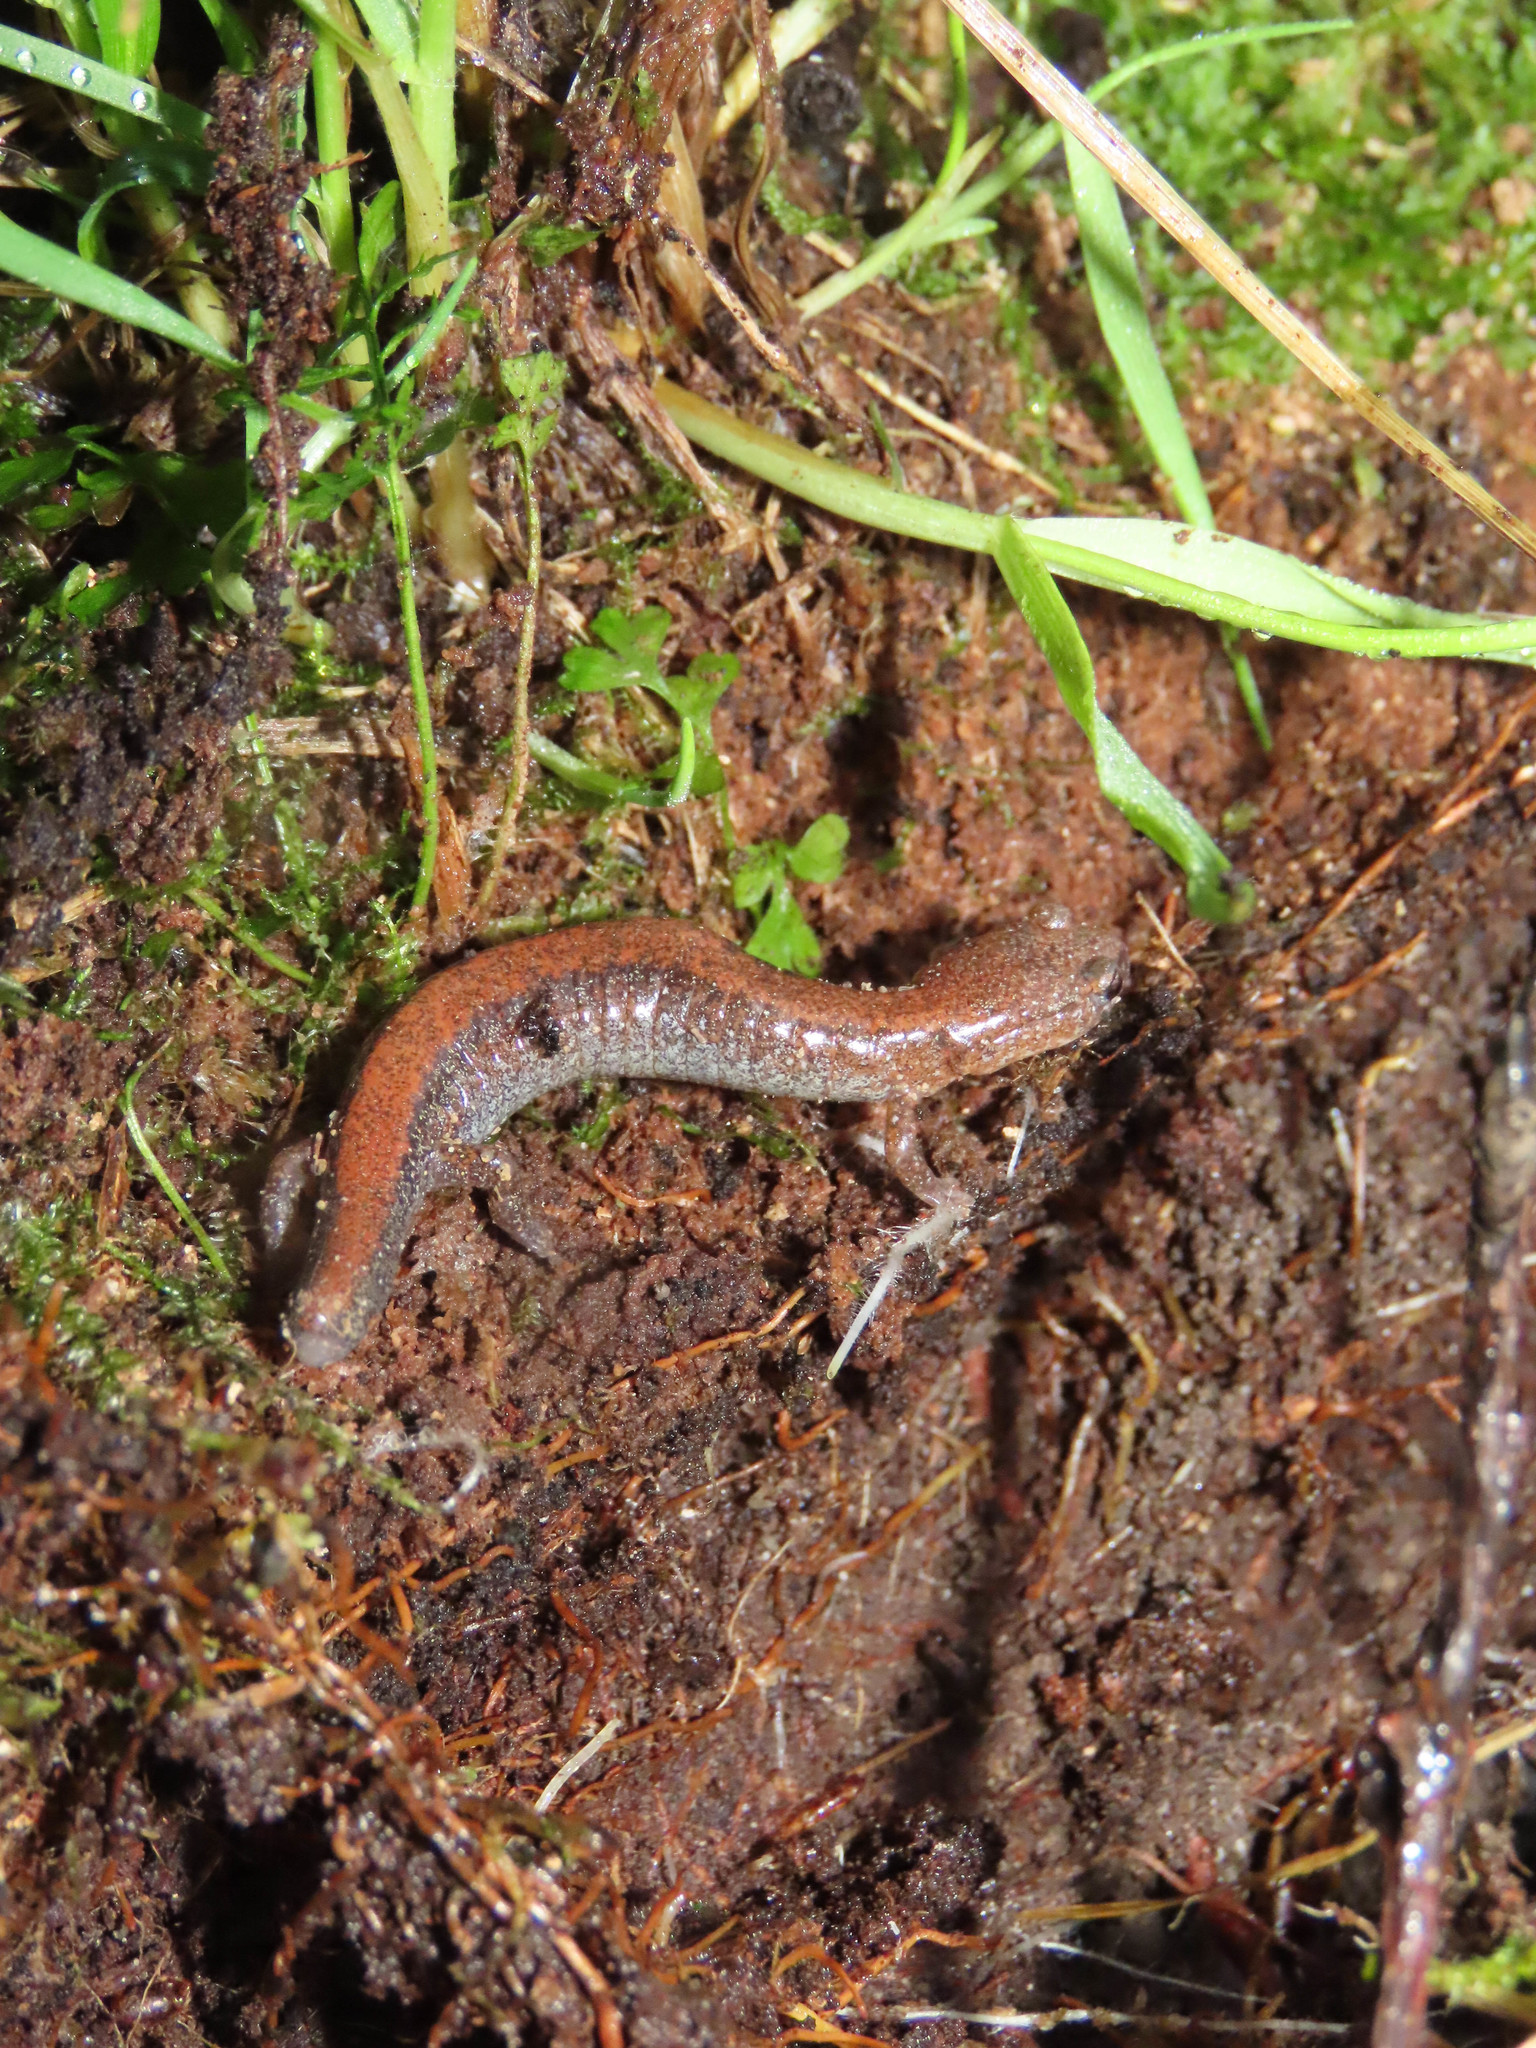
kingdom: Animalia
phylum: Chordata
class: Amphibia
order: Caudata
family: Plethodontidae
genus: Plethodon
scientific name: Plethodon cinereus
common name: Redback salamander
